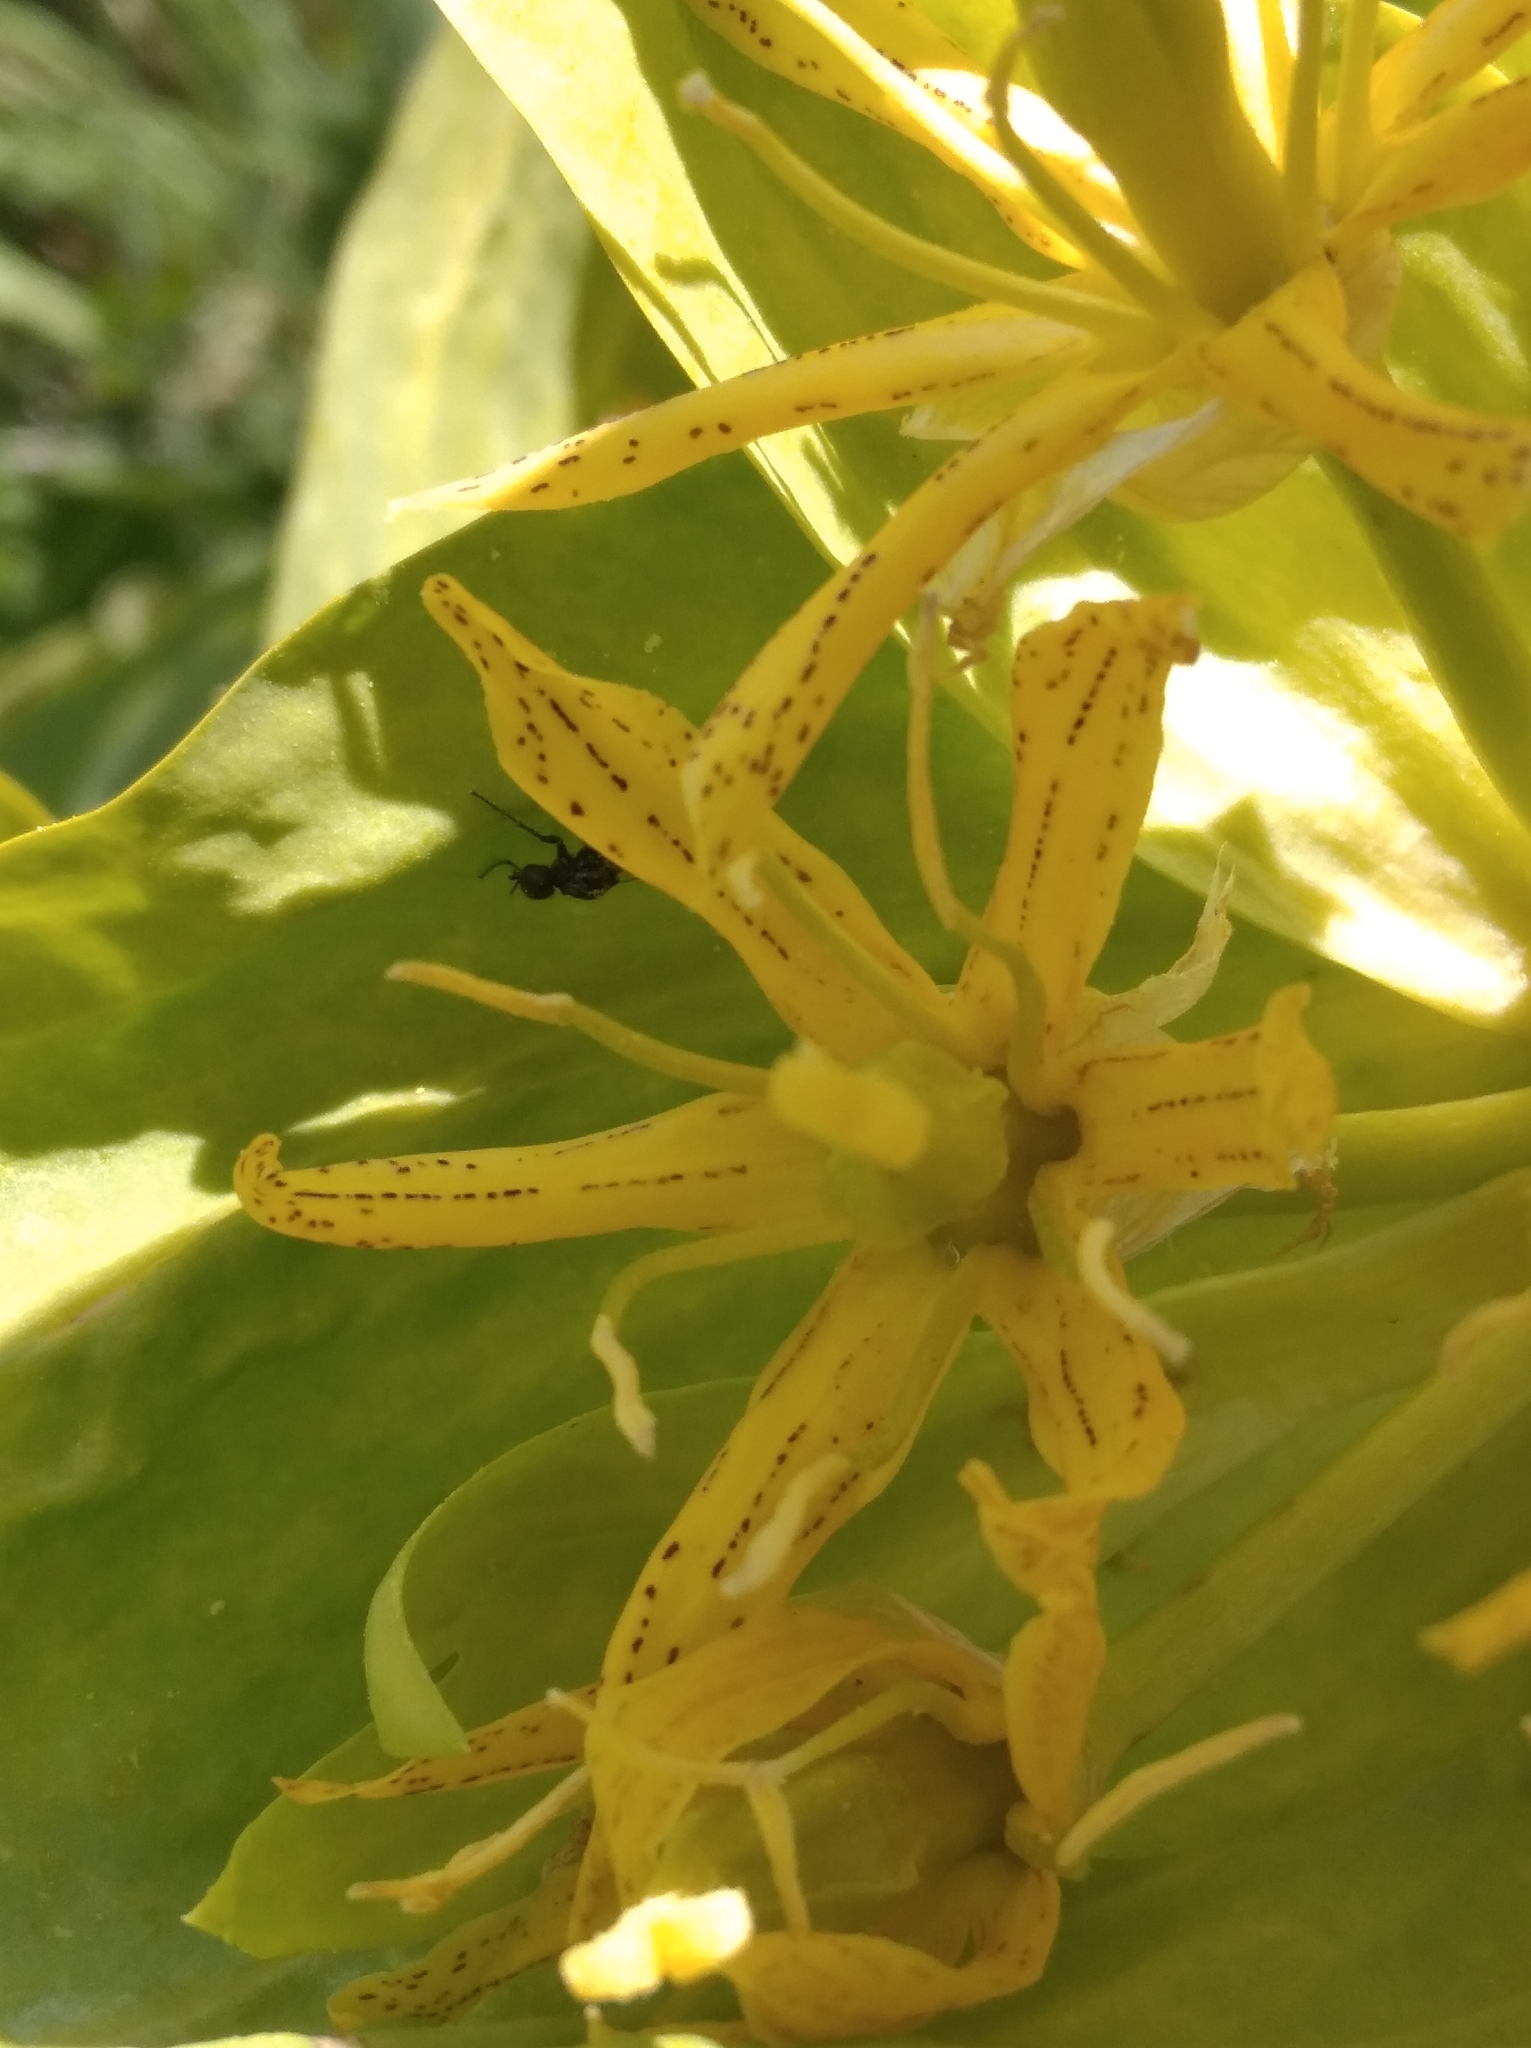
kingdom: Plantae
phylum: Tracheophyta
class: Magnoliopsida
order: Gentianales
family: Gentianaceae
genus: Gentiana
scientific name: Gentiana lutea
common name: Great yellow gentian
